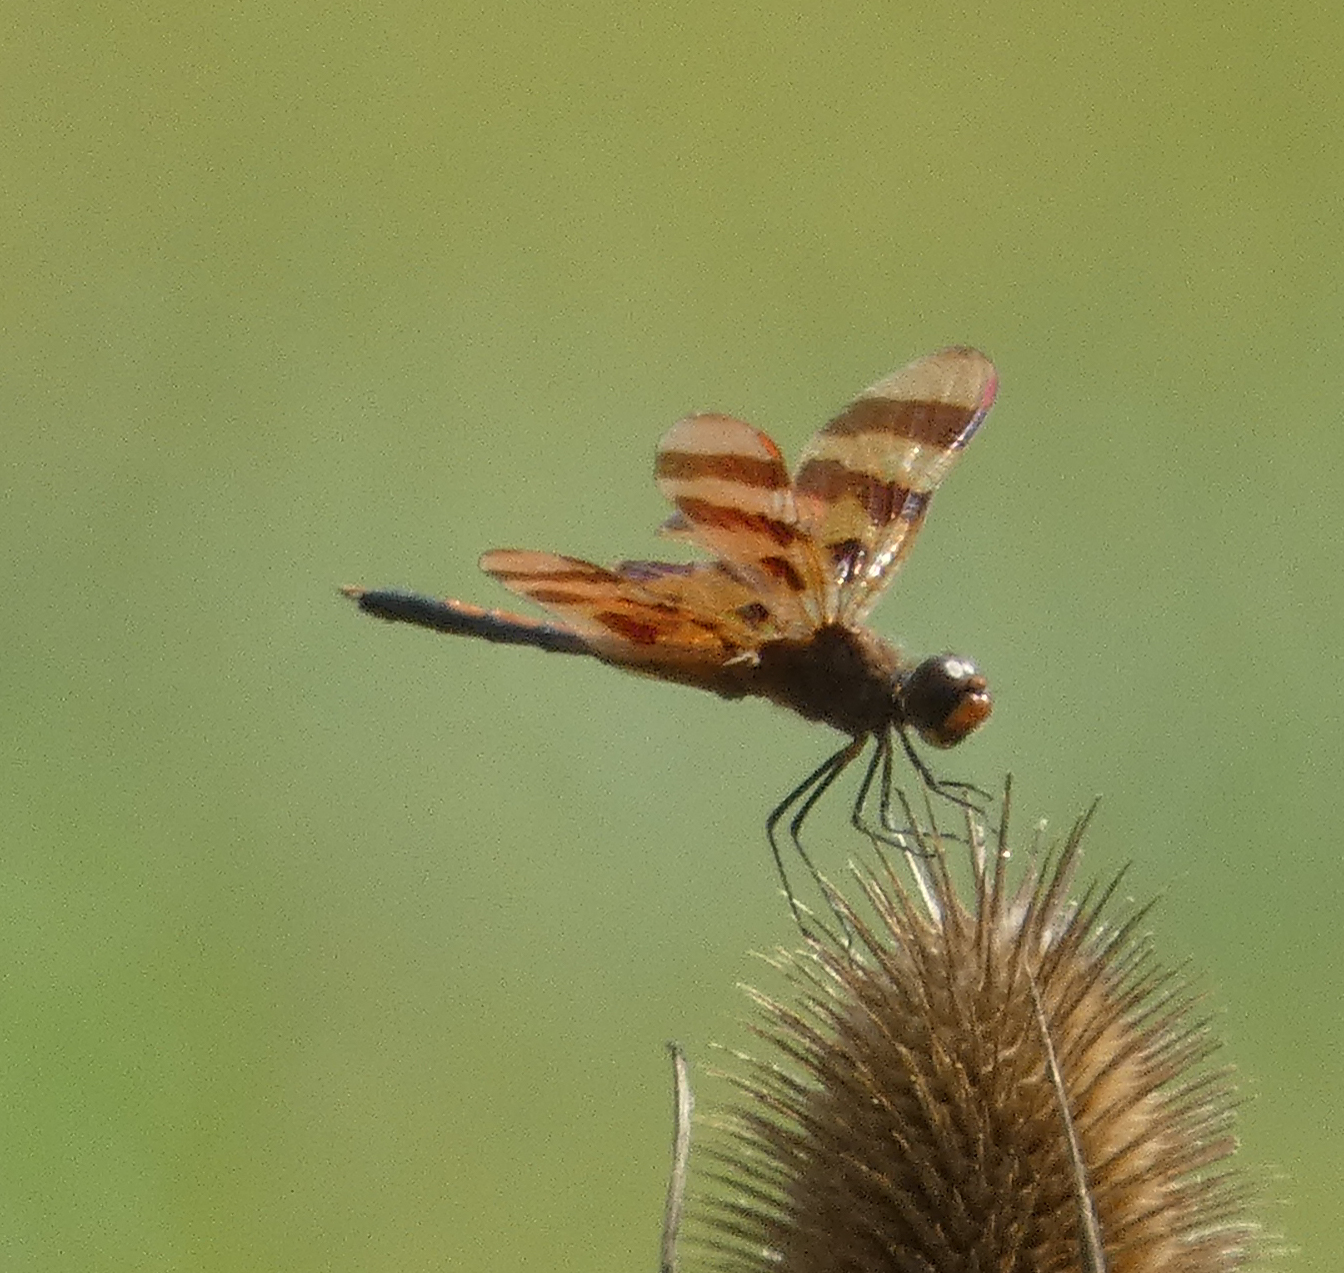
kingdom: Animalia
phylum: Arthropoda
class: Insecta
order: Odonata
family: Libellulidae
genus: Celithemis
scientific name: Celithemis eponina
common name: Halloween pennant
